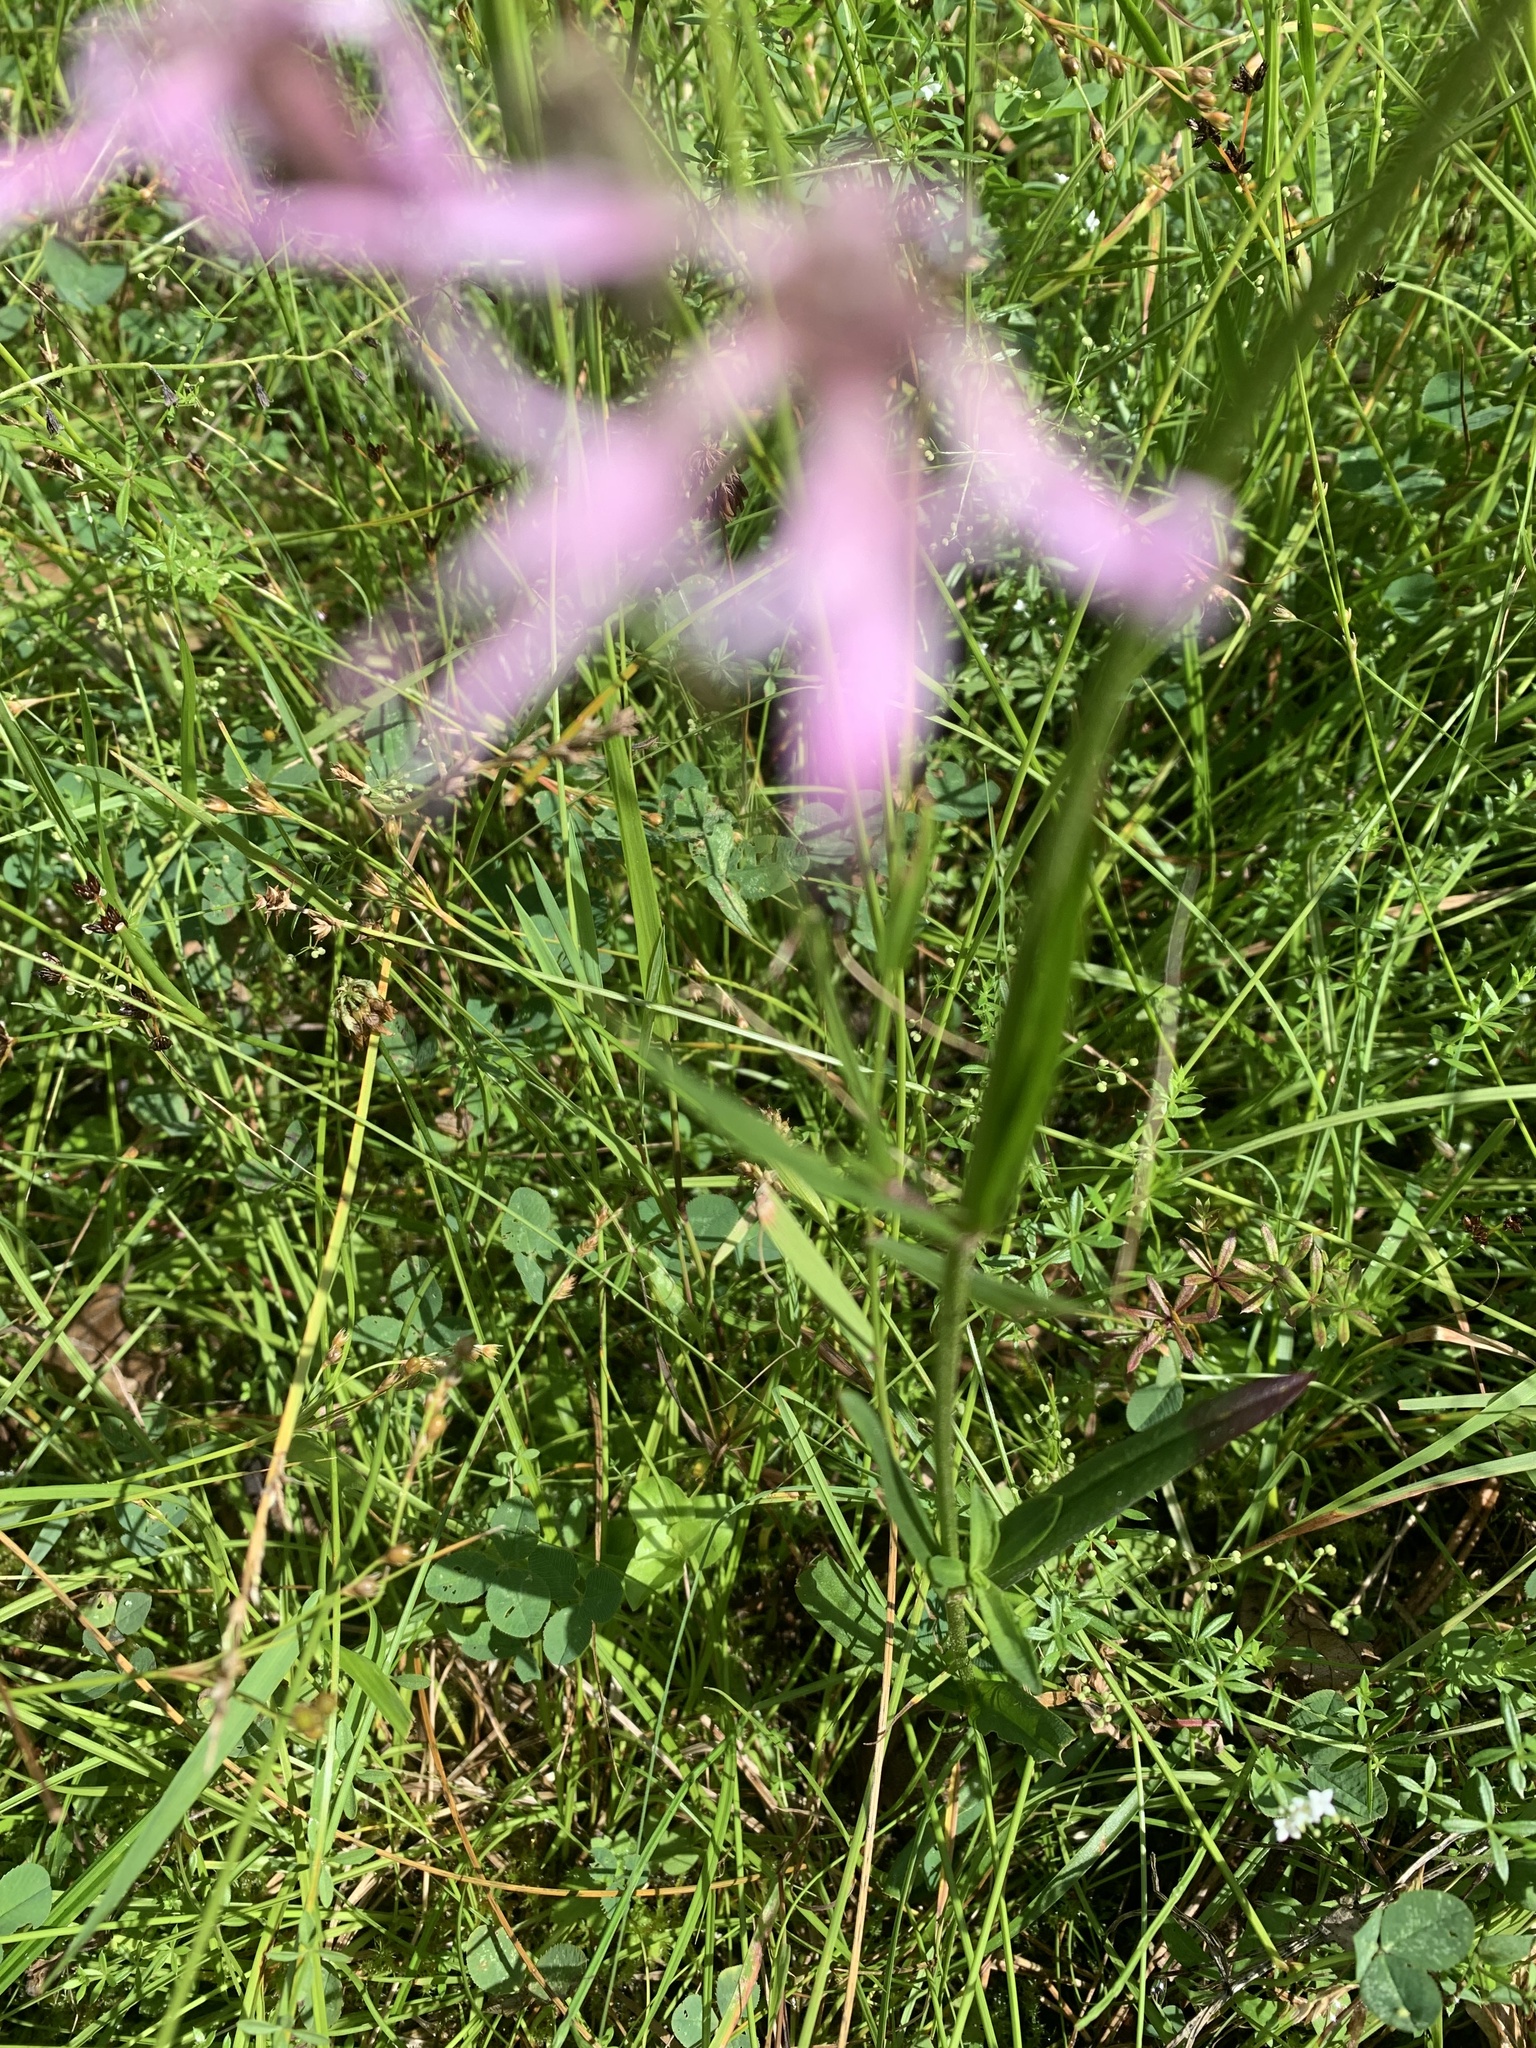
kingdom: Plantae
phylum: Tracheophyta
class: Magnoliopsida
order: Caryophyllales
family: Caryophyllaceae
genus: Silene
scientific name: Silene flos-cuculi
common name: Ragged-robin
